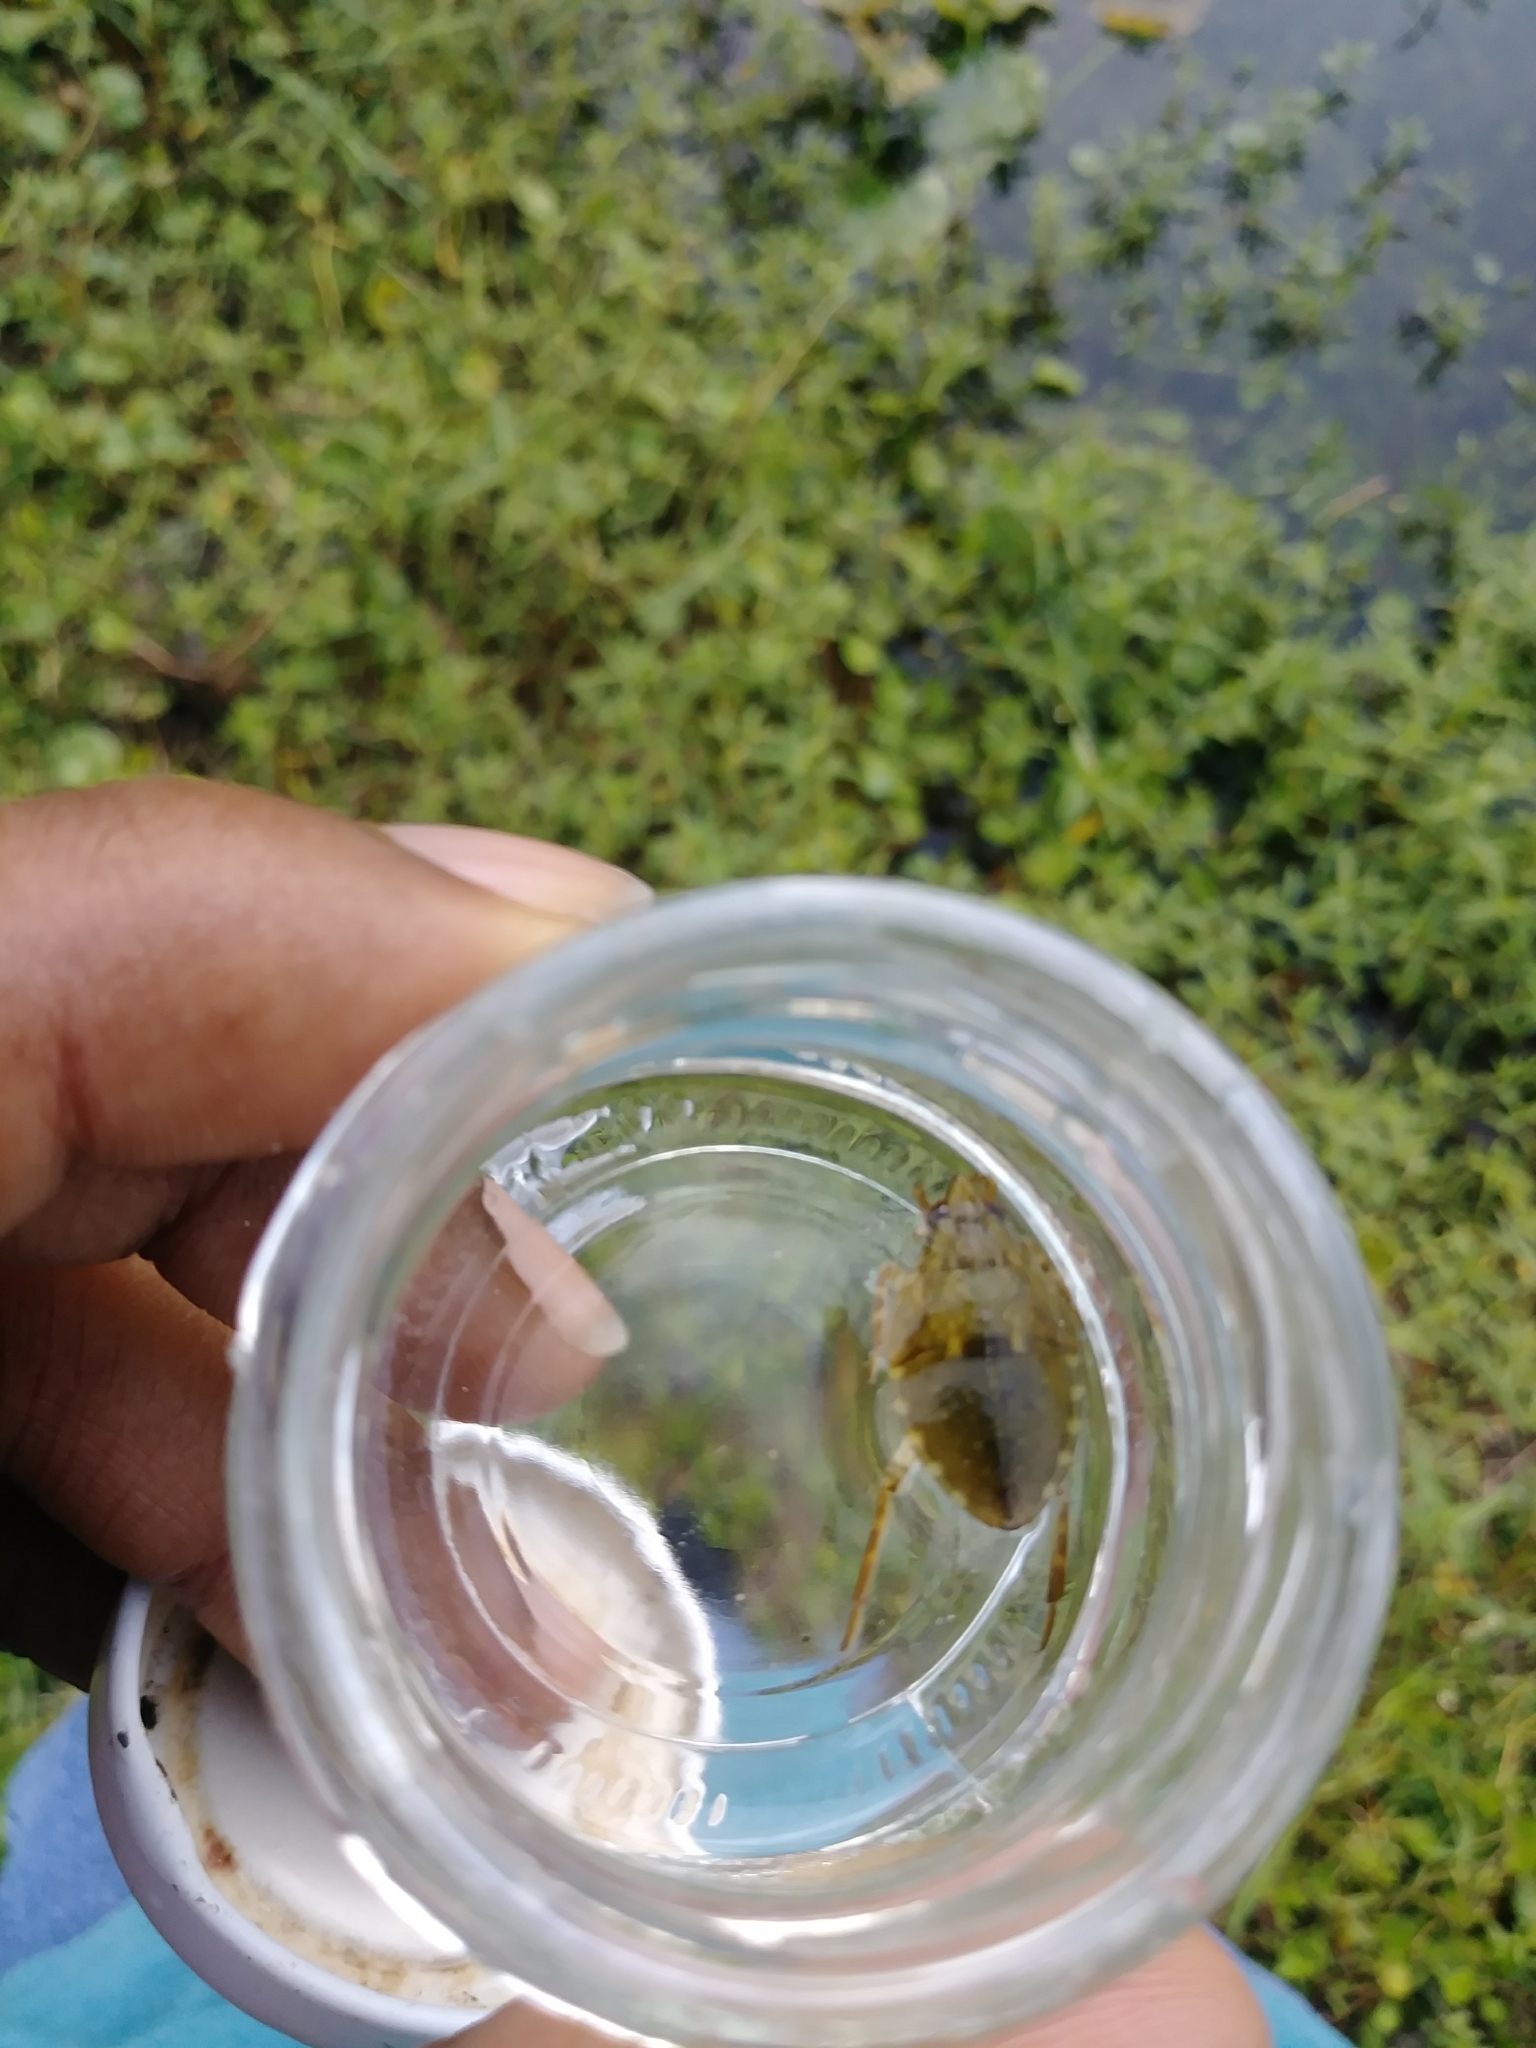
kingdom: Animalia
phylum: Arthropoda
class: Insecta
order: Hemiptera
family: Belostomatidae
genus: Belostoma
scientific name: Belostoma
